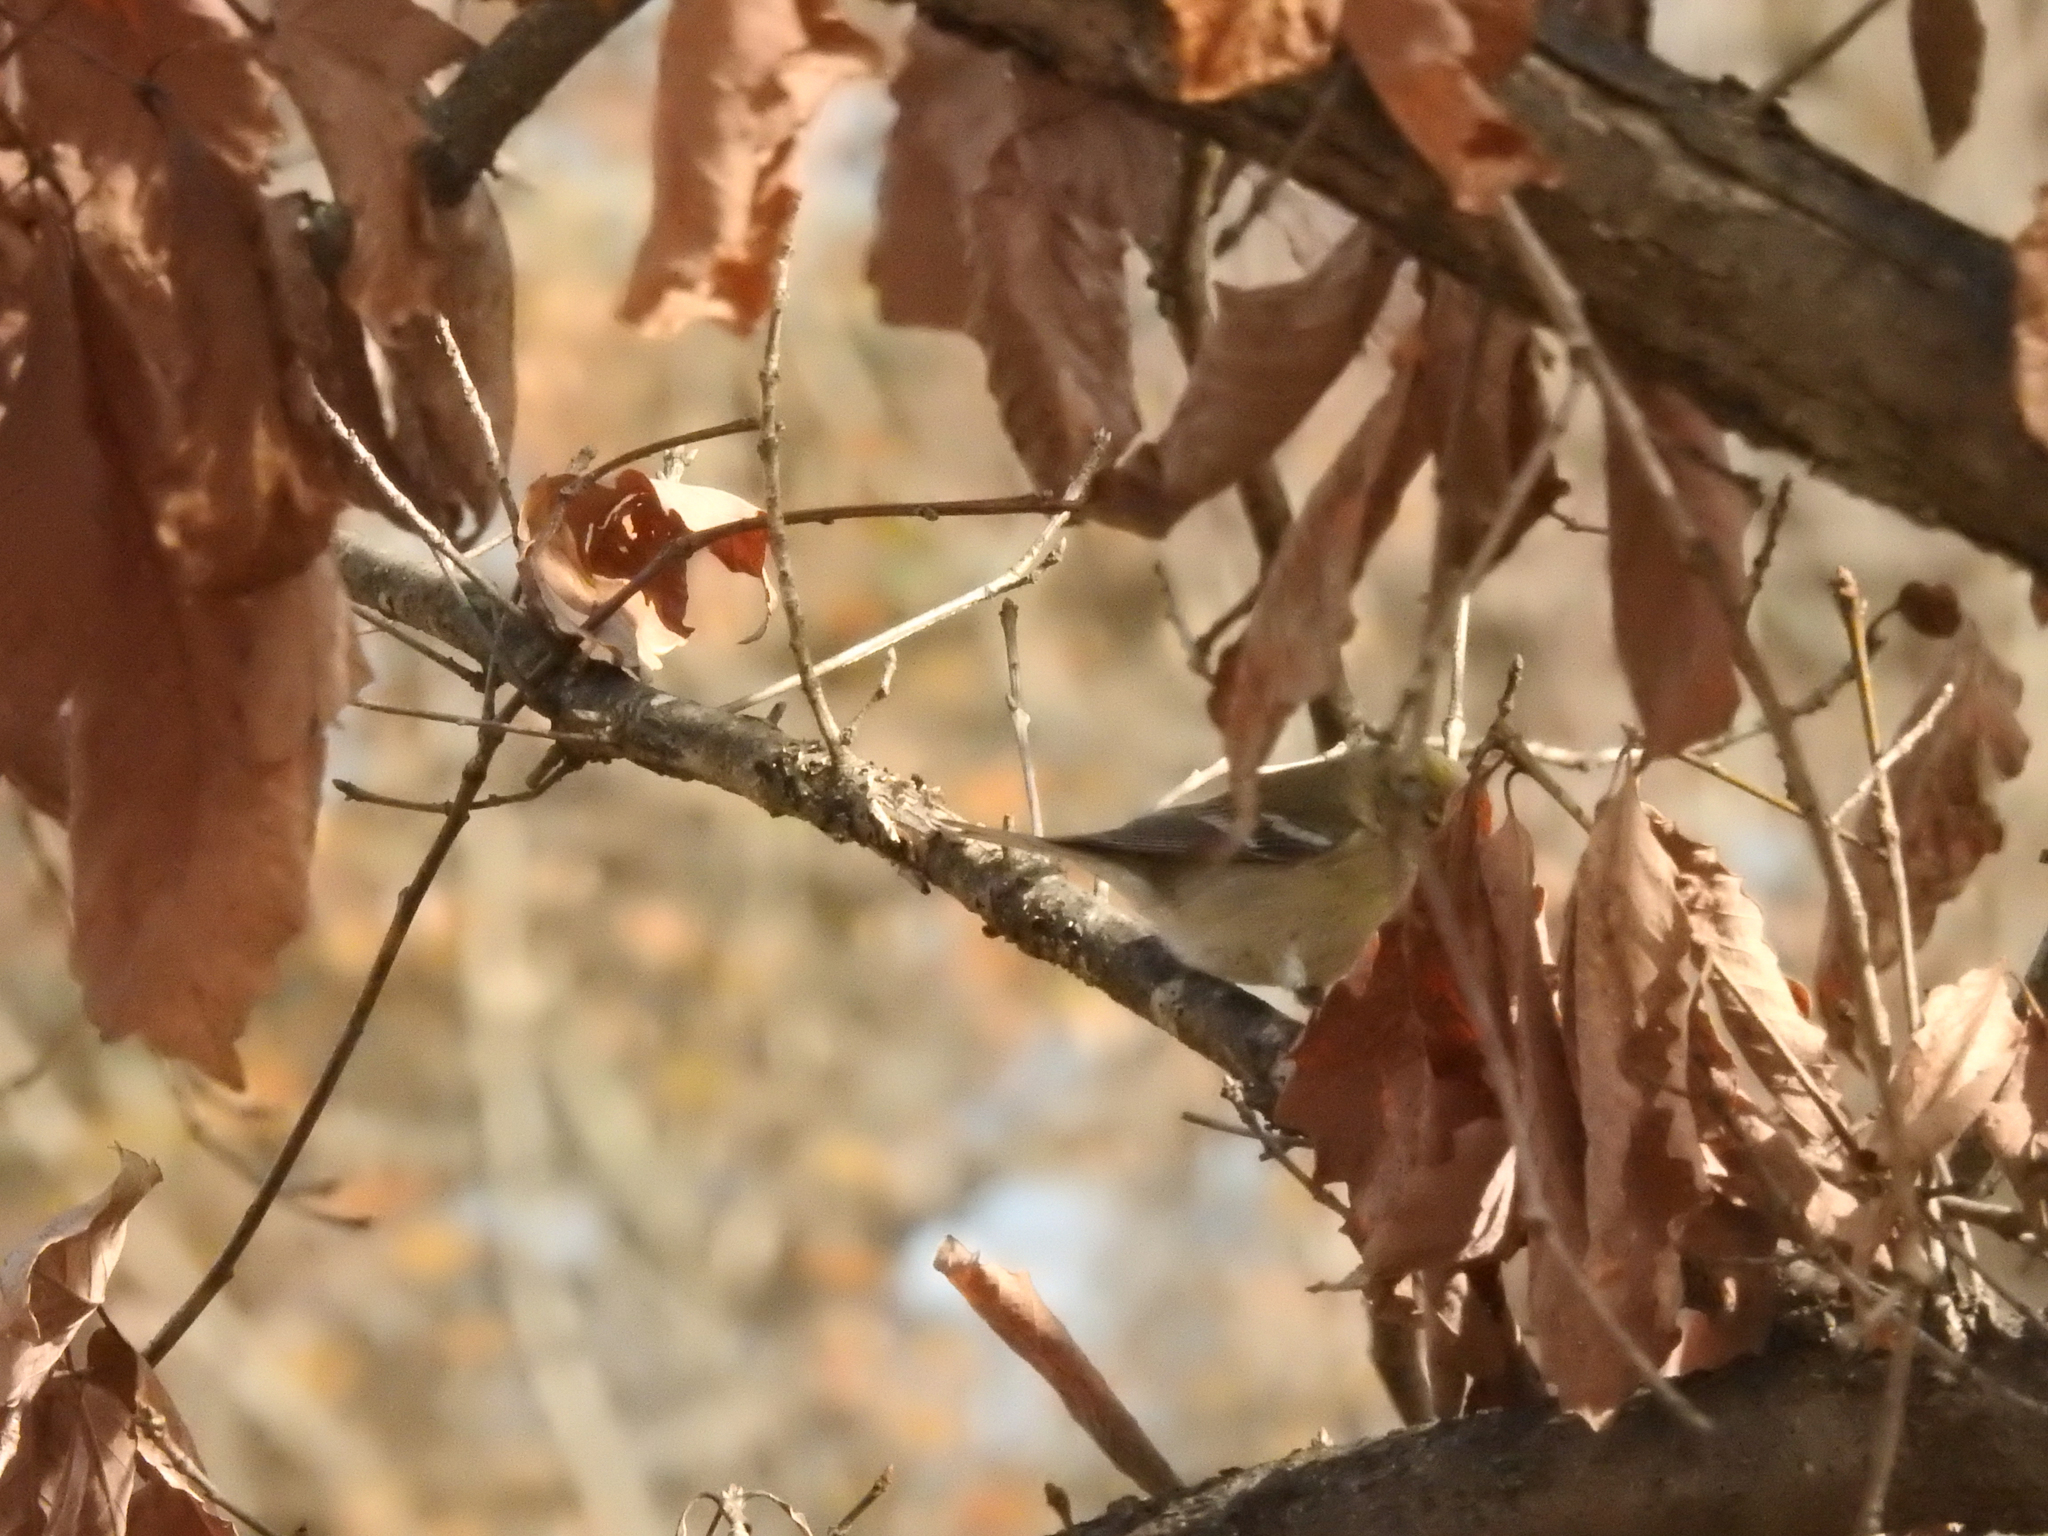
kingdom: Animalia
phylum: Chordata
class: Aves
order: Passeriformes
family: Fringillidae
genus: Spinus
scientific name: Spinus tristis
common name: American goldfinch
